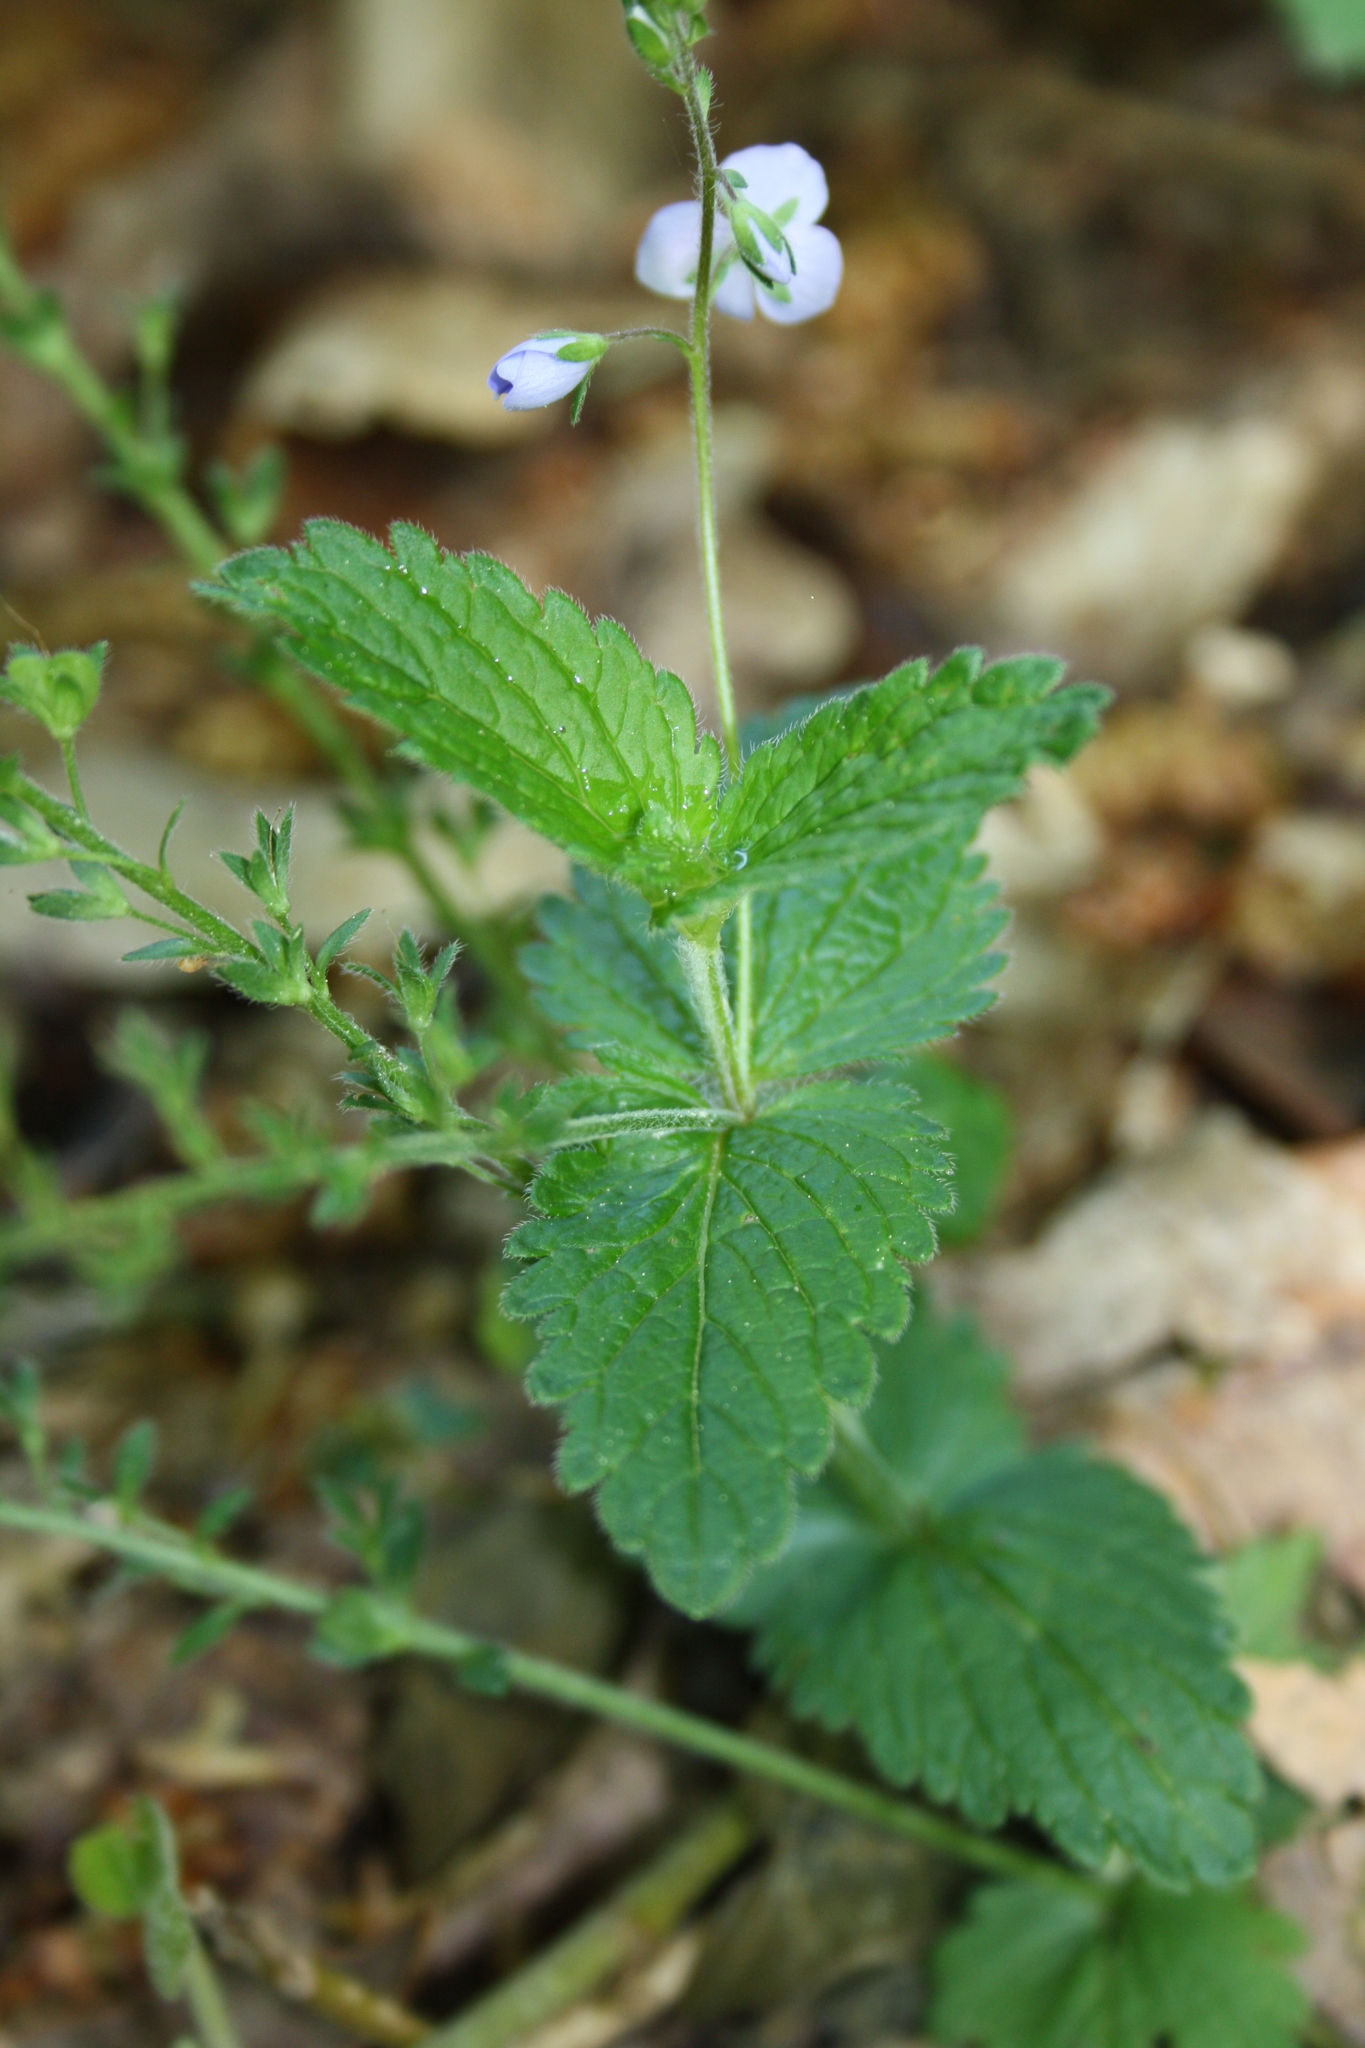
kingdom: Plantae
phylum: Tracheophyta
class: Magnoliopsida
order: Lamiales
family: Plantaginaceae
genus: Veronica
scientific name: Veronica chamaedrys
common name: Germander speedwell
